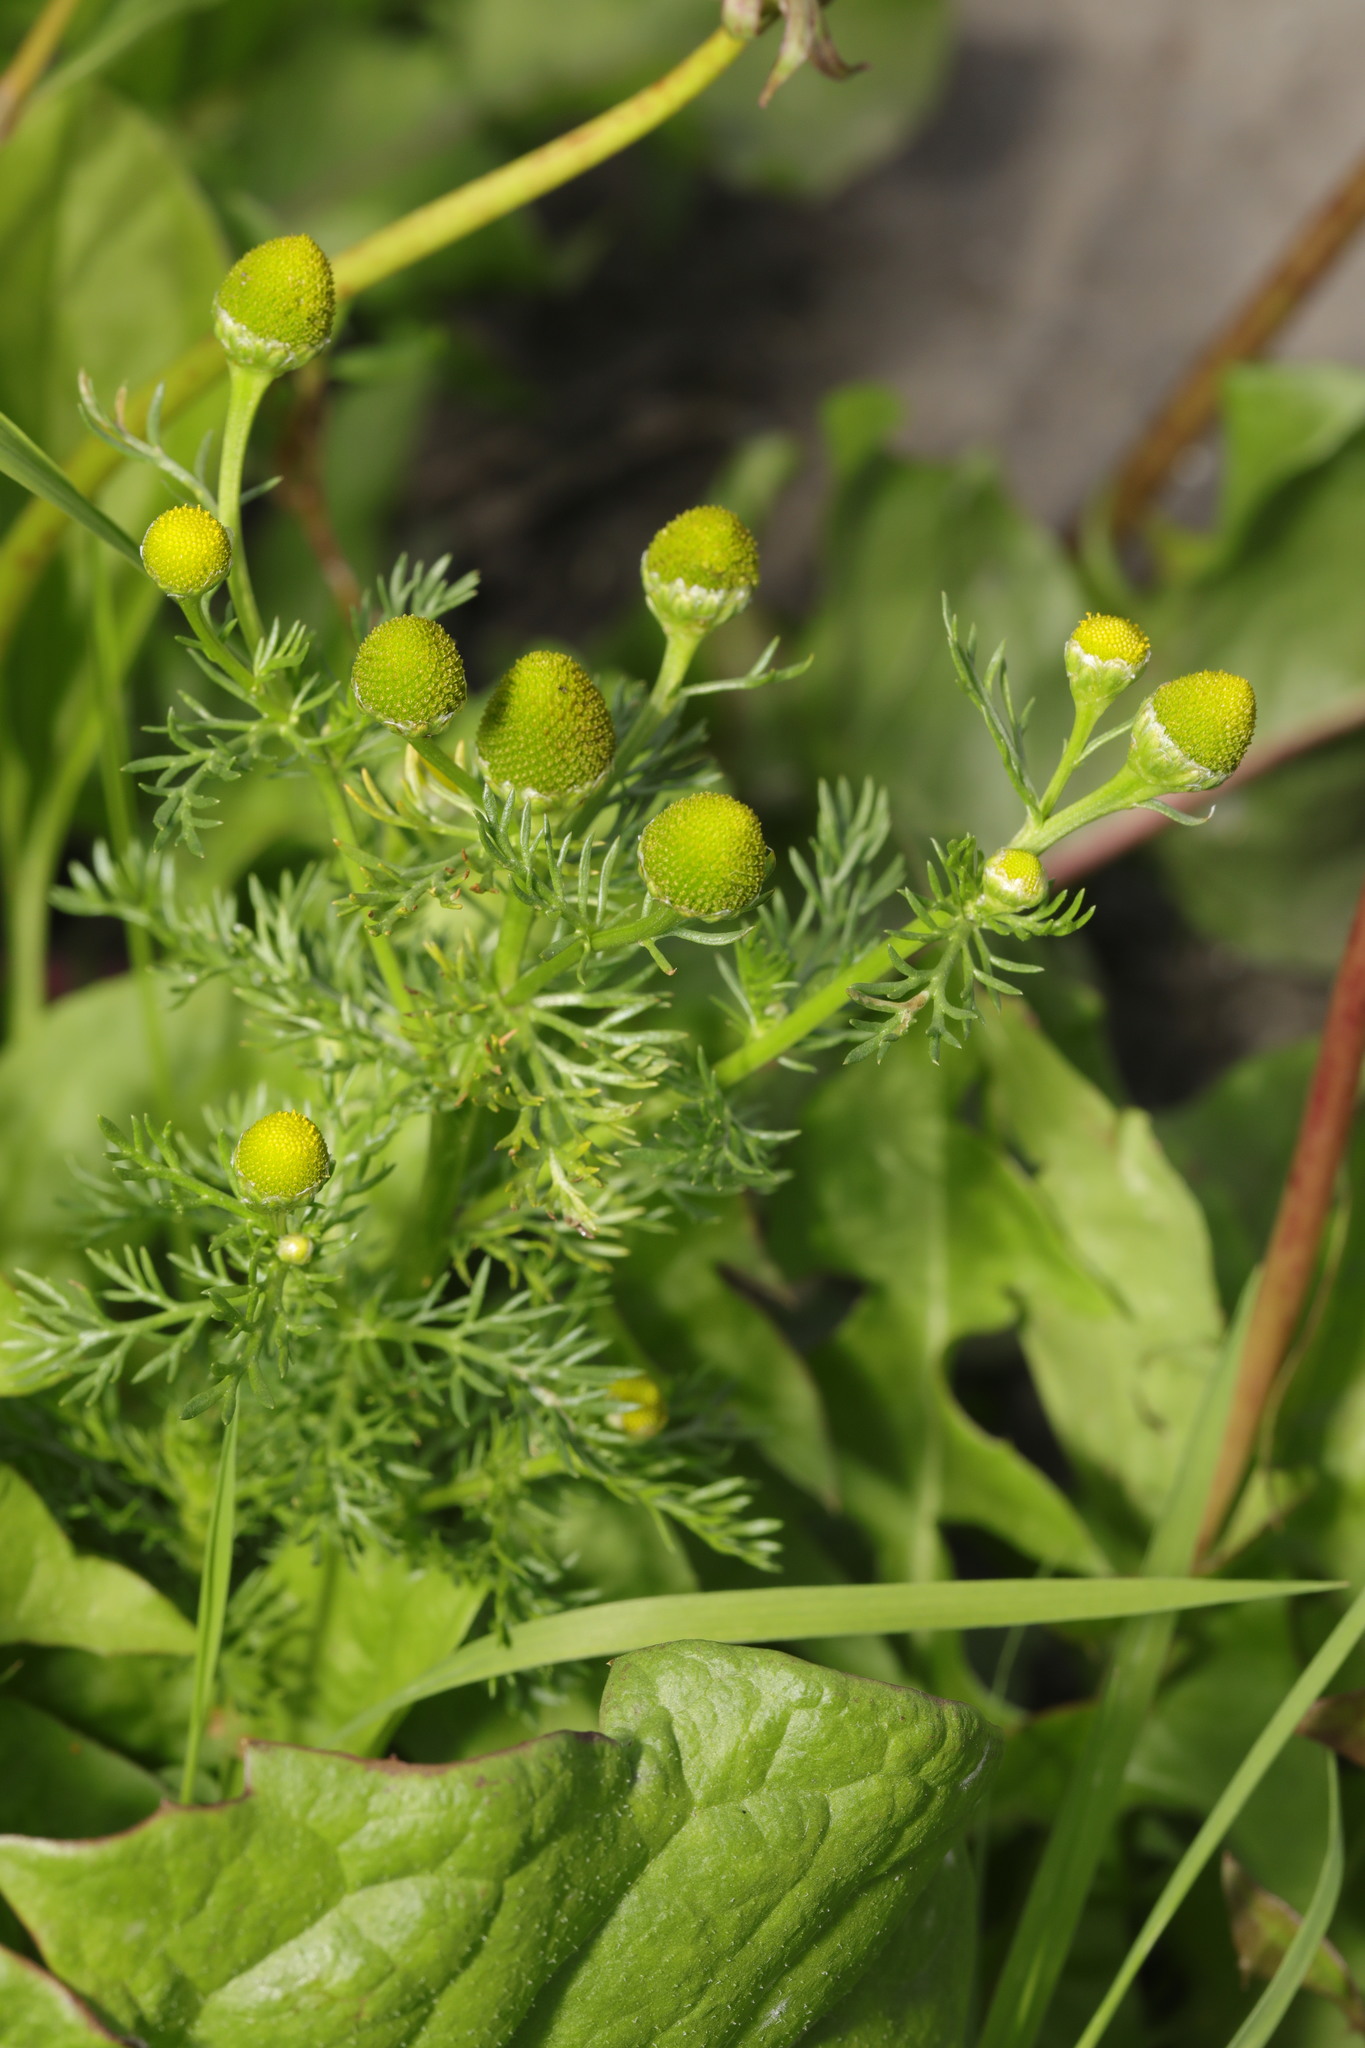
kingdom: Plantae
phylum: Tracheophyta
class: Magnoliopsida
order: Asterales
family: Asteraceae
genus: Matricaria
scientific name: Matricaria discoidea
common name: Disc mayweed
